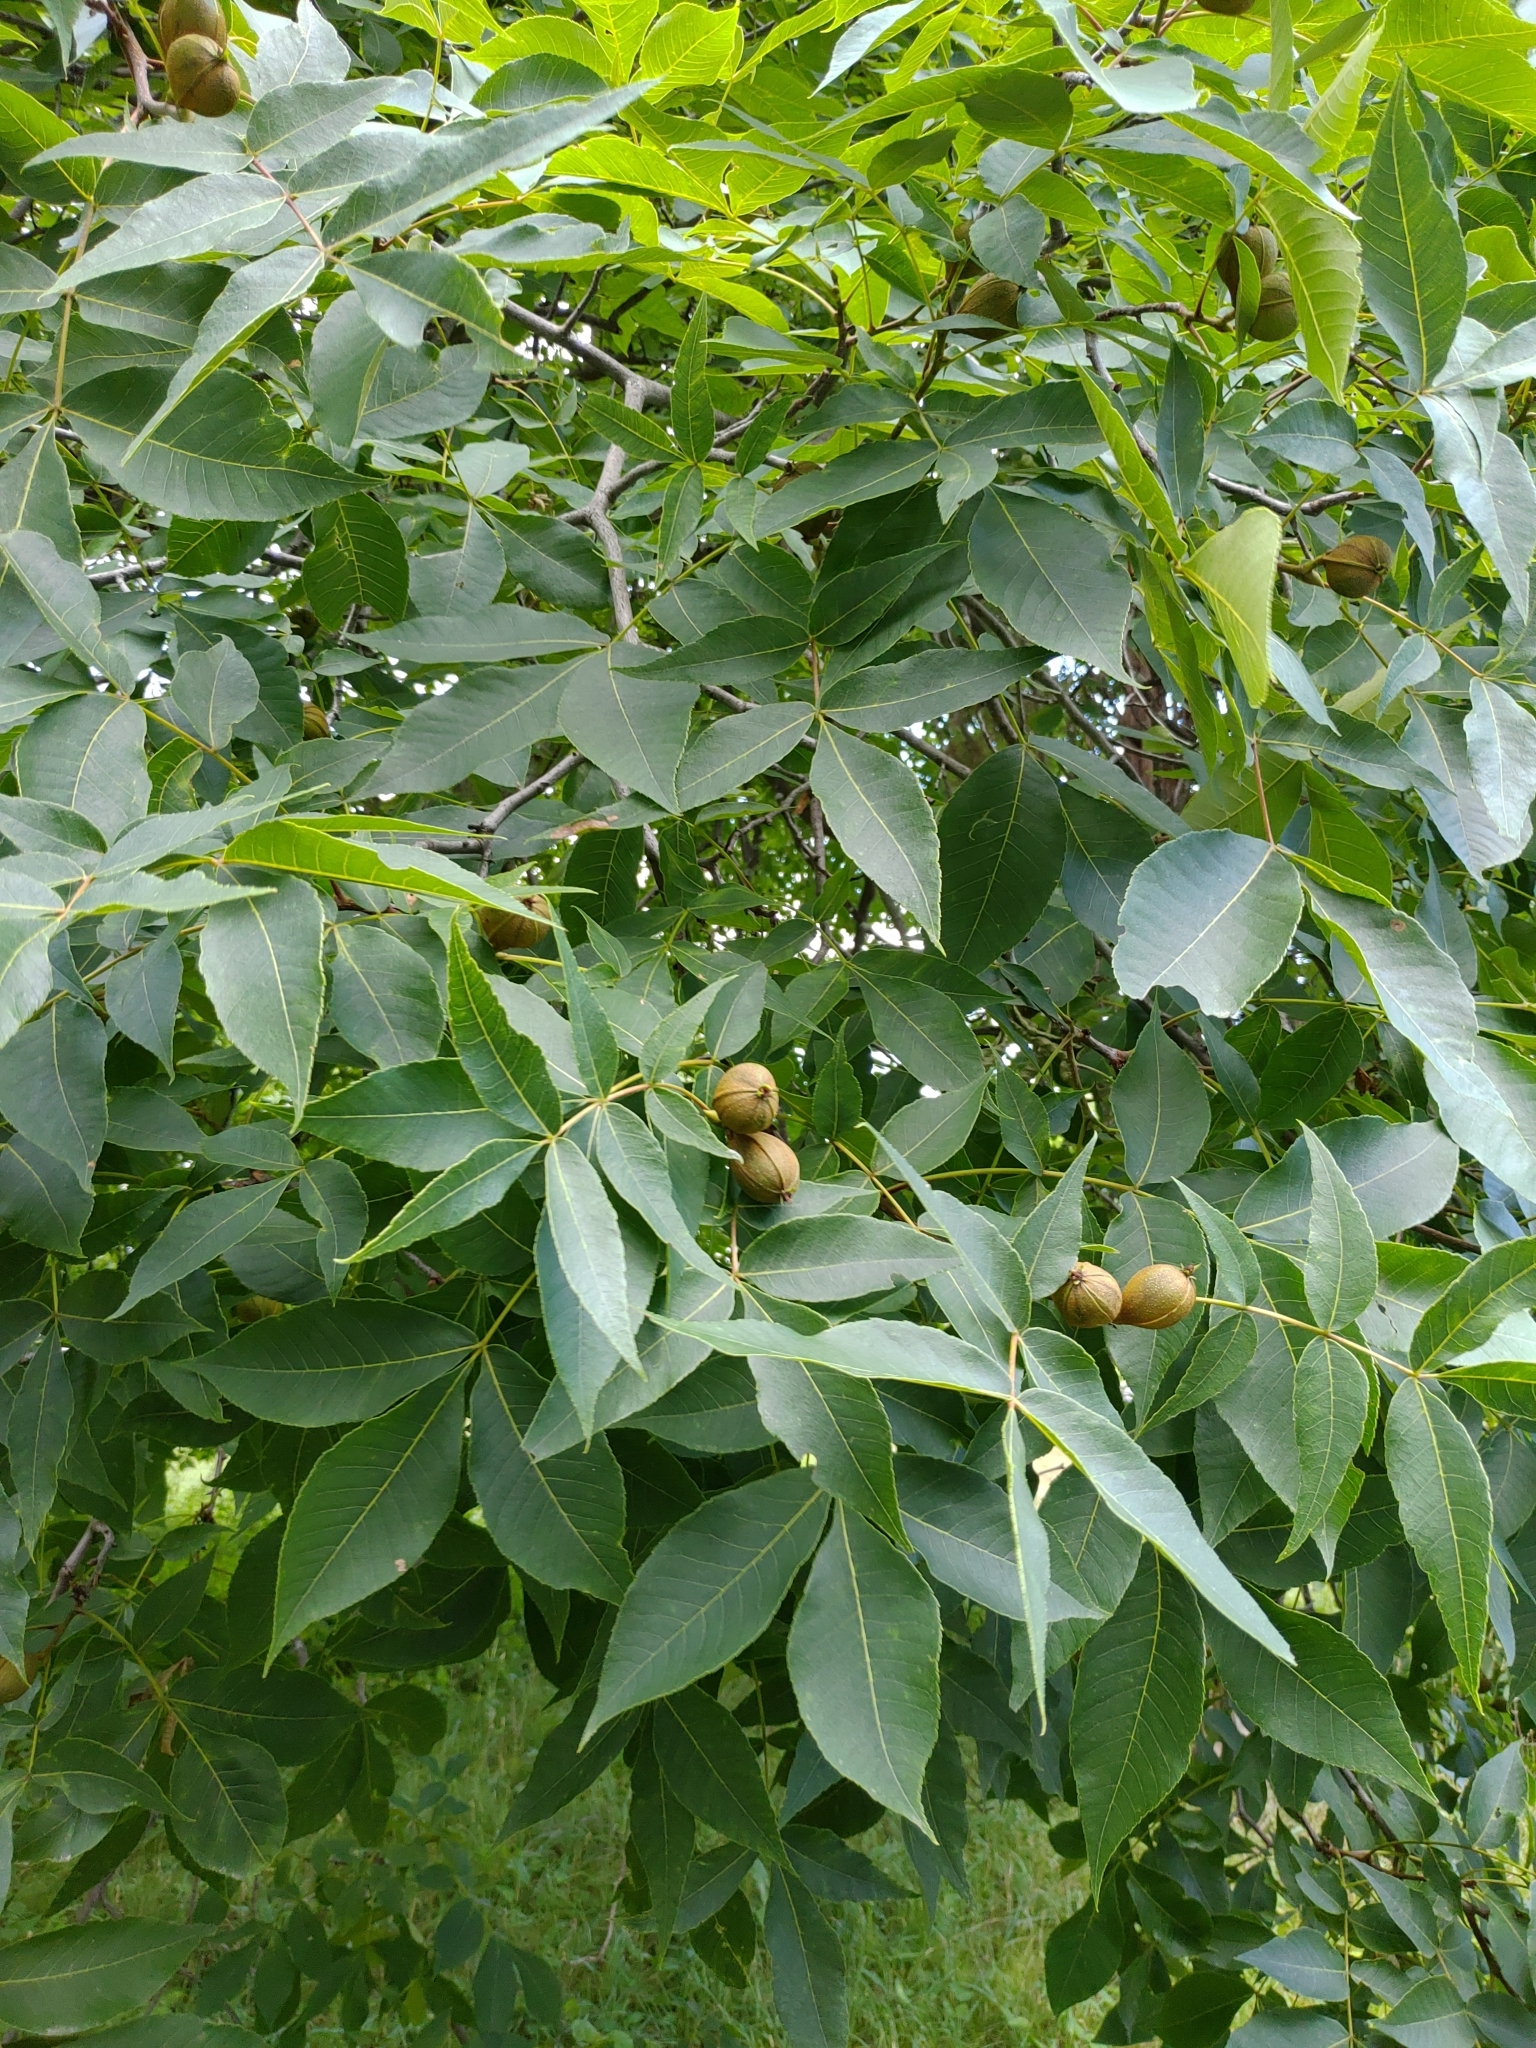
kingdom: Plantae
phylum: Tracheophyta
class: Magnoliopsida
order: Fagales
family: Juglandaceae
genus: Carya
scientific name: Carya glabra
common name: Pignut hickory
